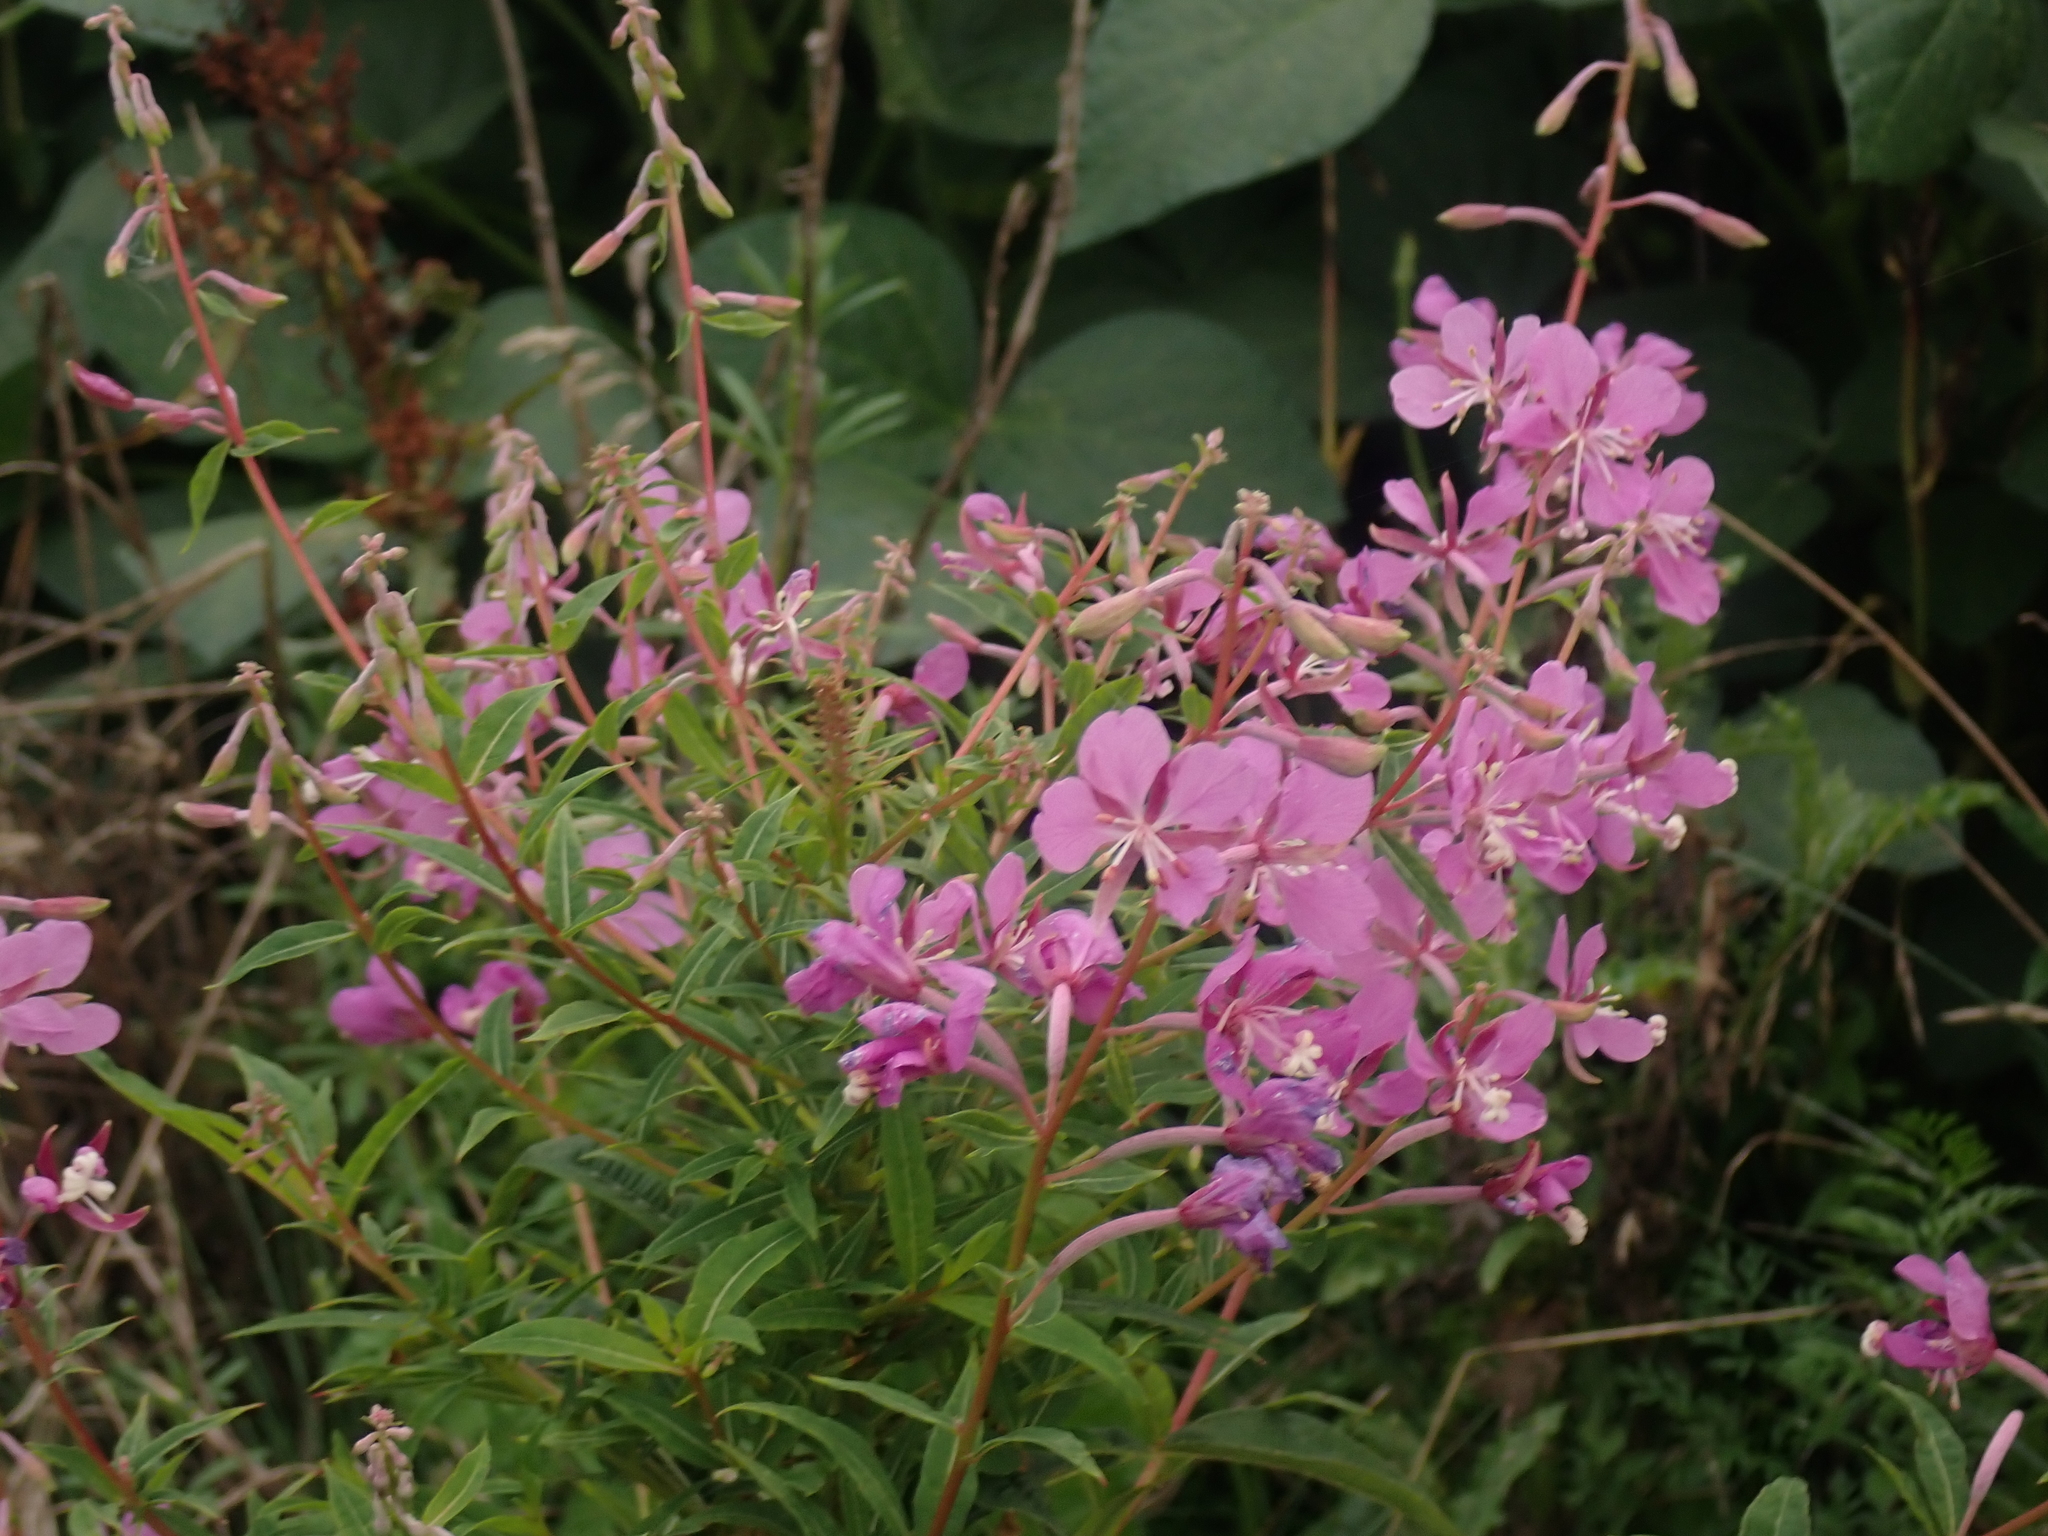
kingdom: Plantae
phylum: Tracheophyta
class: Magnoliopsida
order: Myrtales
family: Onagraceae
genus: Chamaenerion
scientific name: Chamaenerion angustifolium
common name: Fireweed
